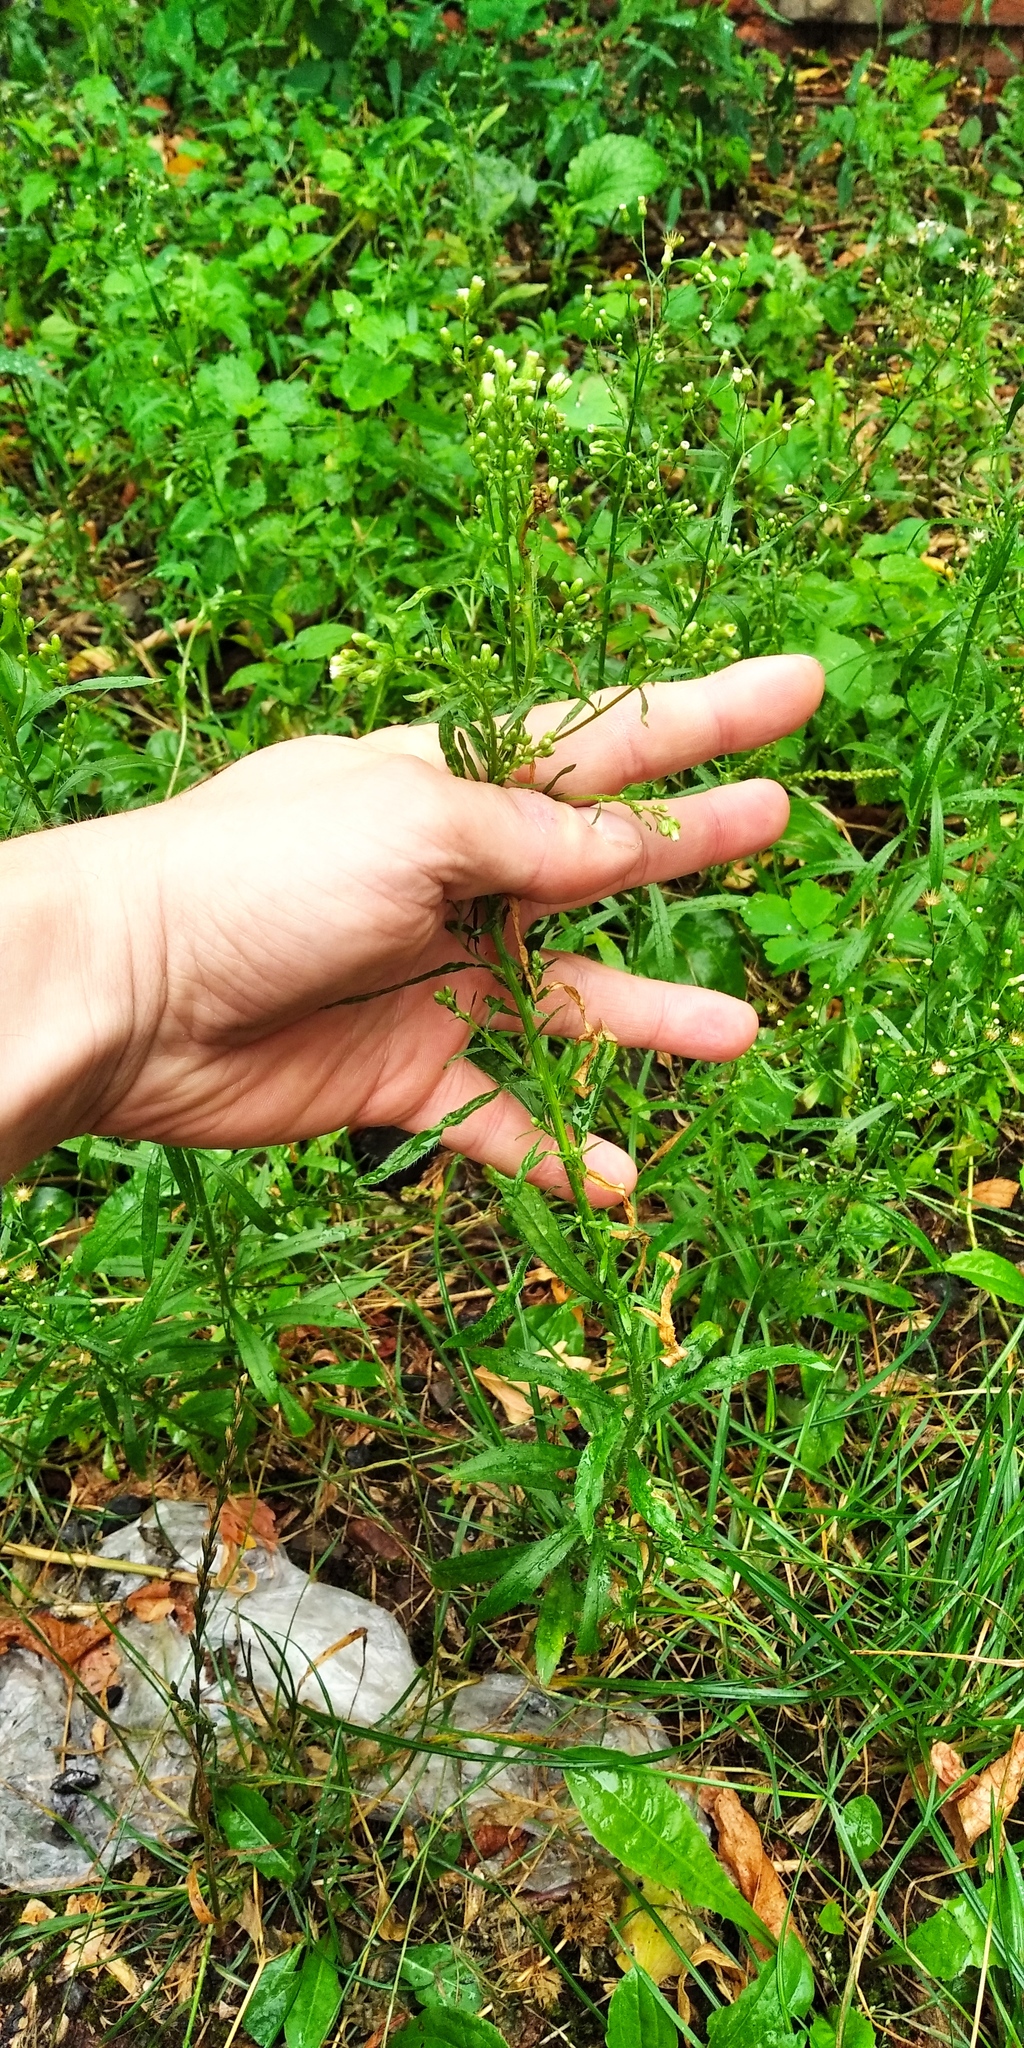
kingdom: Plantae
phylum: Tracheophyta
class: Magnoliopsida
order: Asterales
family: Asteraceae
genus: Erigeron
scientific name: Erigeron canadensis
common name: Canadian fleabane
